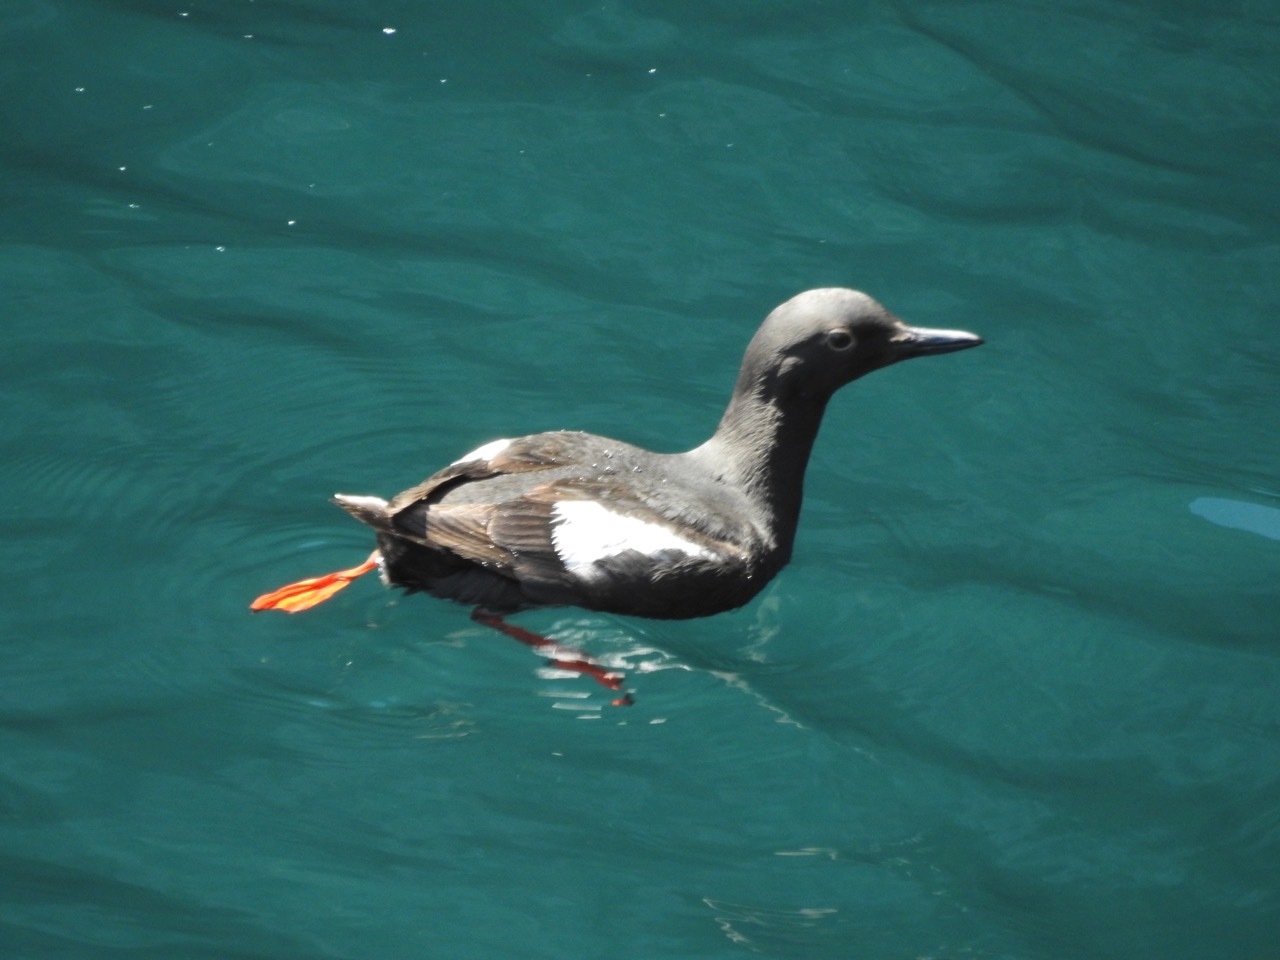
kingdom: Animalia
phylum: Chordata
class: Aves
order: Charadriiformes
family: Alcidae
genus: Cepphus
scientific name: Cepphus columba
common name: Pigeon guillemot
